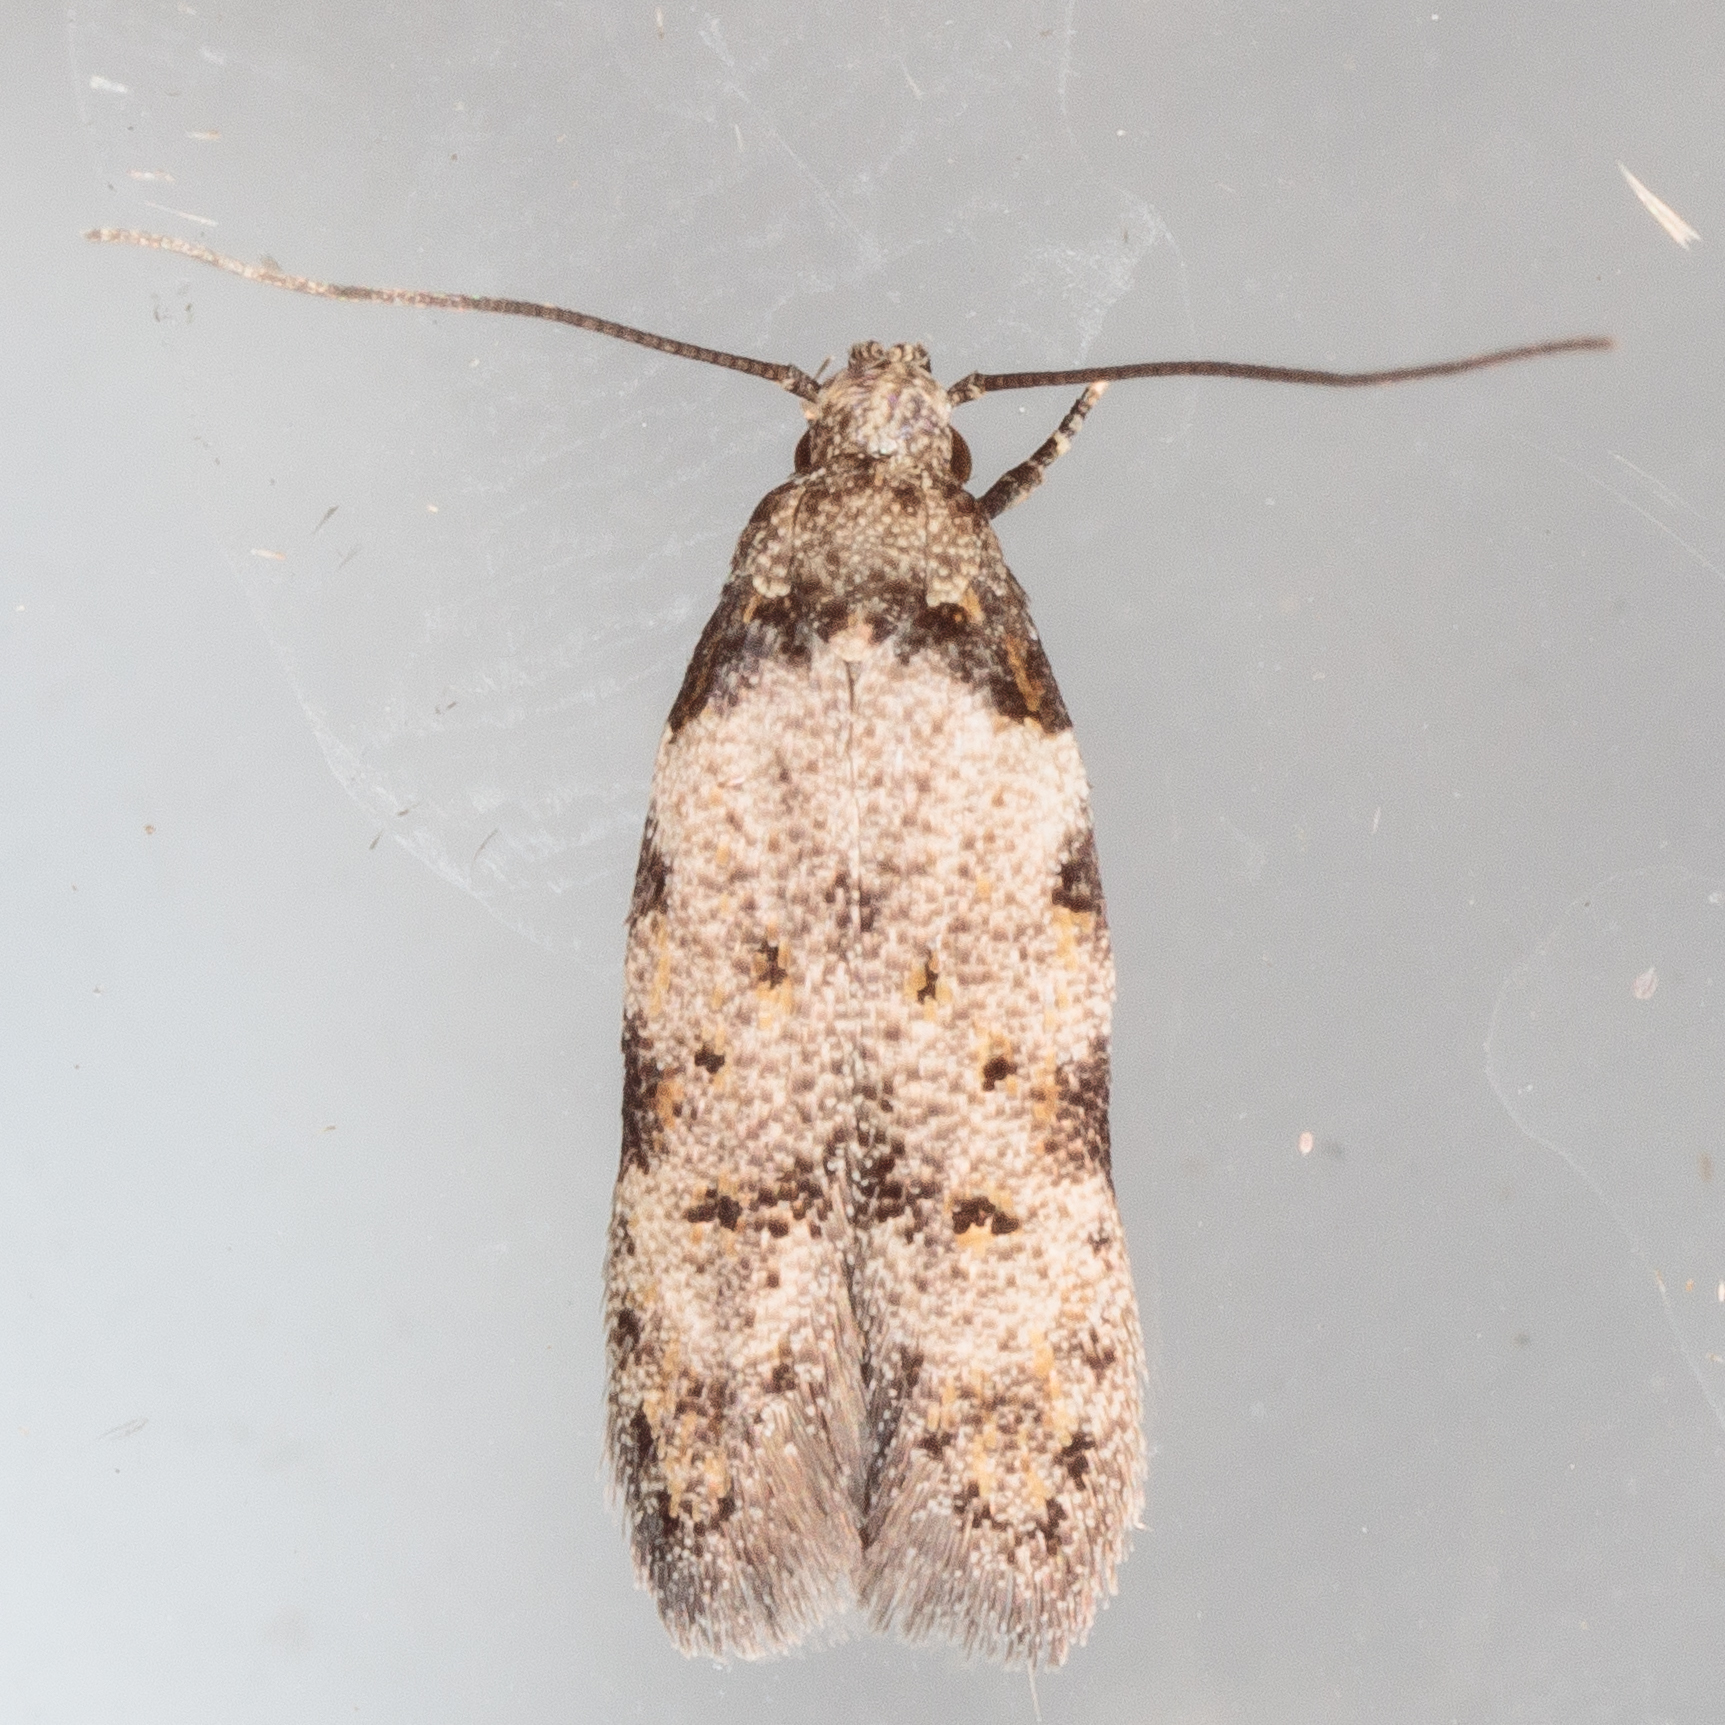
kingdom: Animalia
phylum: Arthropoda
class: Insecta
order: Lepidoptera
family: Autostichidae
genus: Taygete
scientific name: Taygete attributella
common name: Triangle-marked twirler moth
